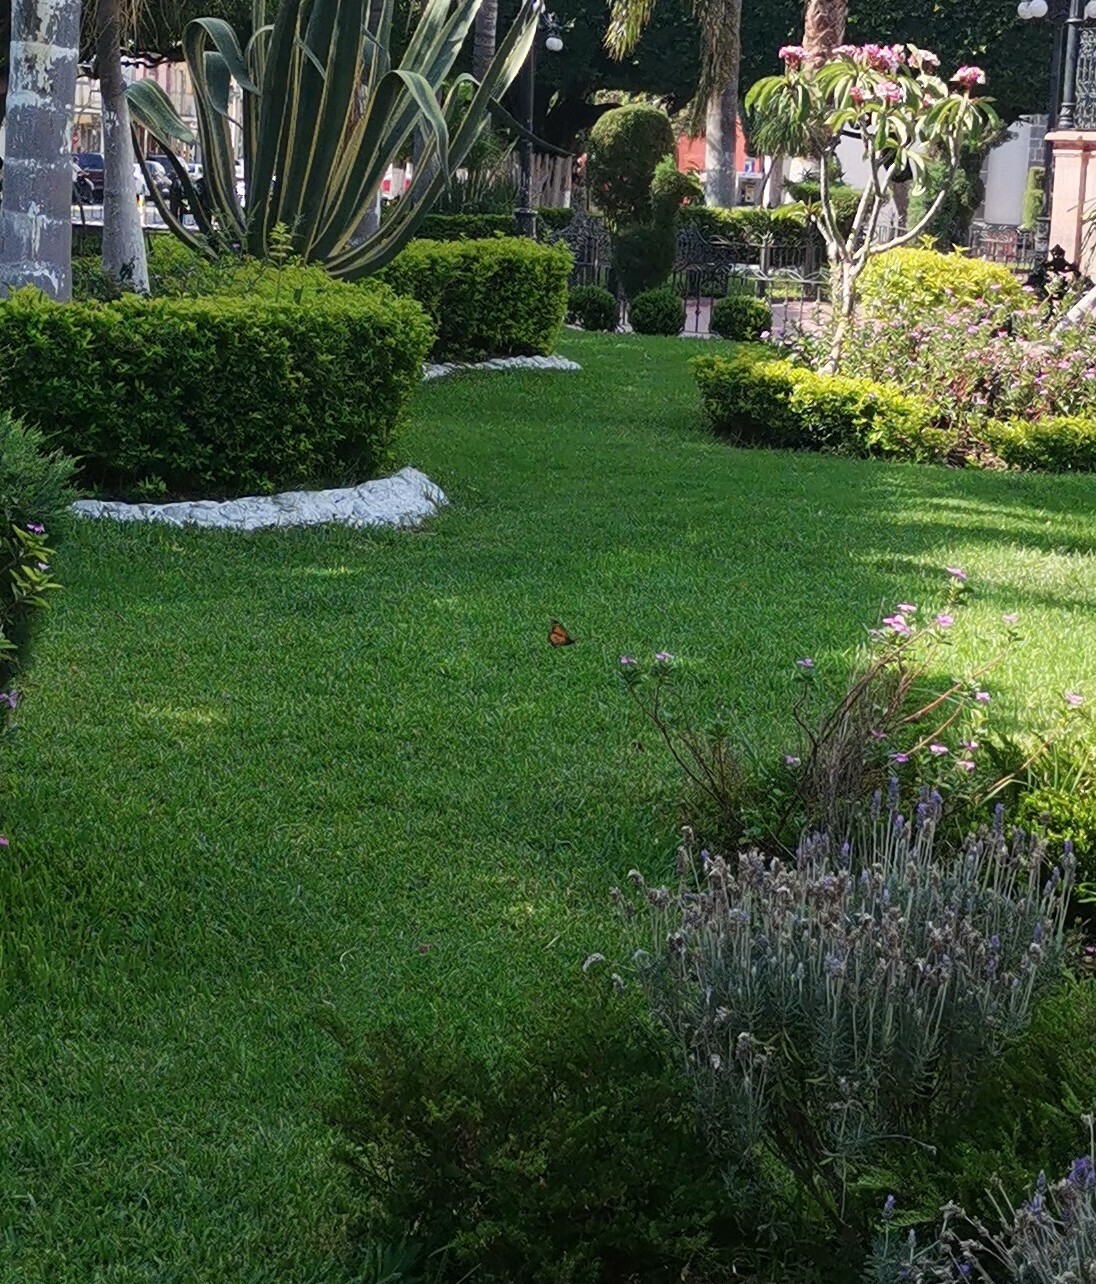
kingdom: Animalia
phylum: Arthropoda
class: Insecta
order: Lepidoptera
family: Nymphalidae
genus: Danaus
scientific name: Danaus plexippus
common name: Monarch
